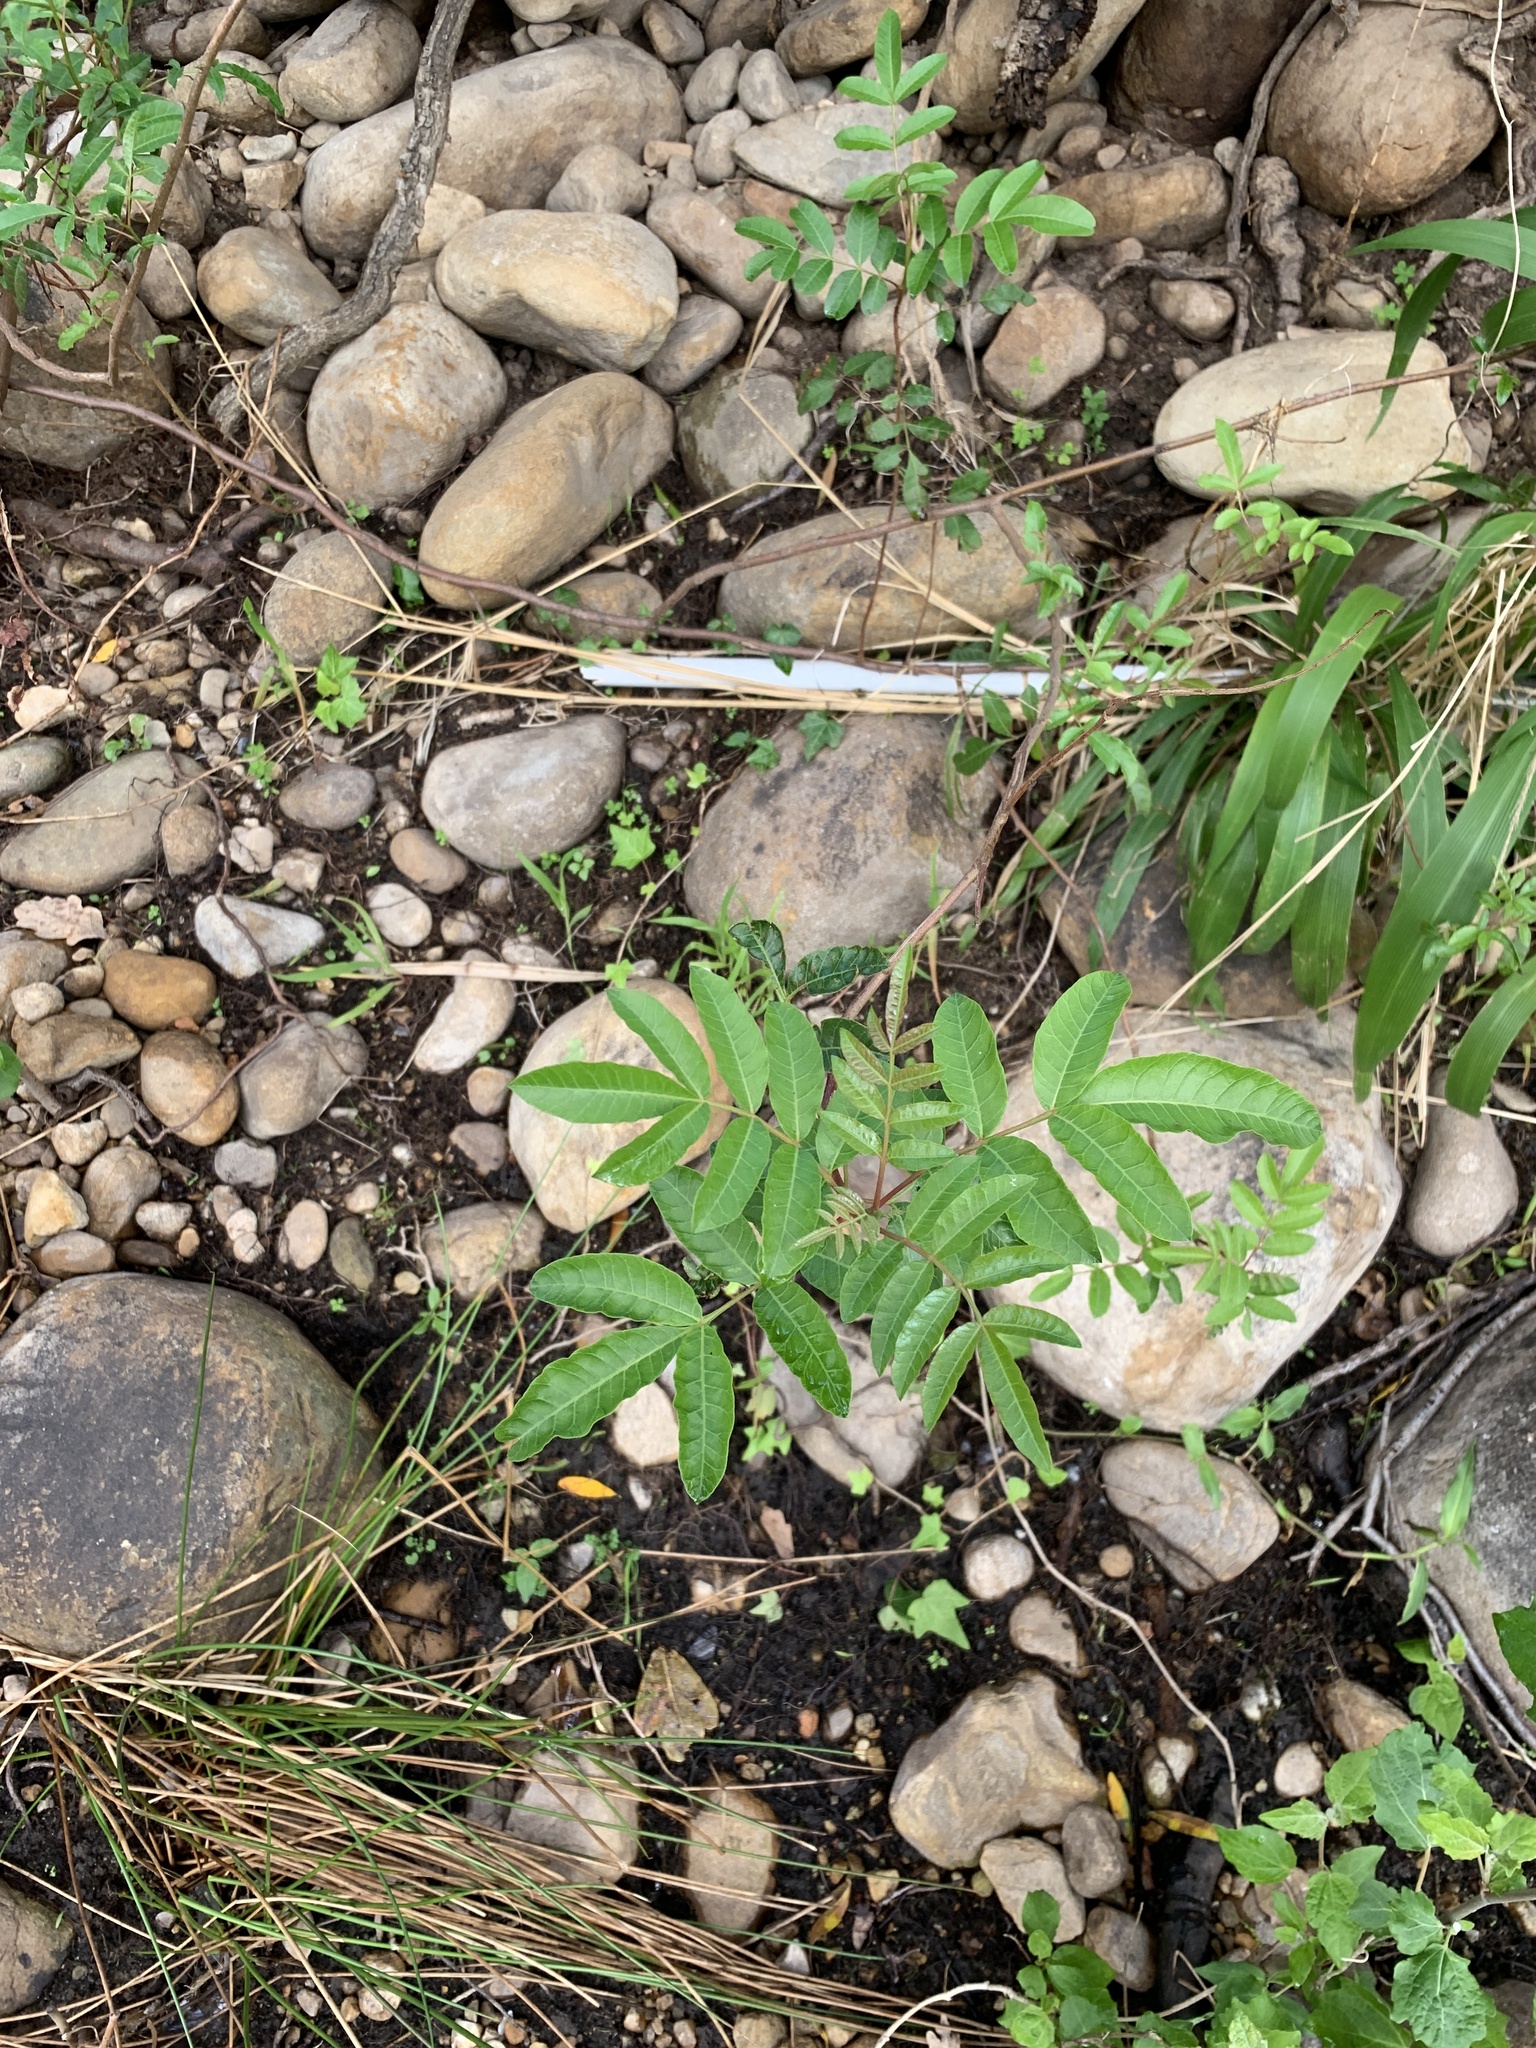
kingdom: Plantae
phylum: Tracheophyta
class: Magnoliopsida
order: Sapindales
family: Anacardiaceae
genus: Schinus
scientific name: Schinus terebinthifolia
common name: Brazilian peppertree
